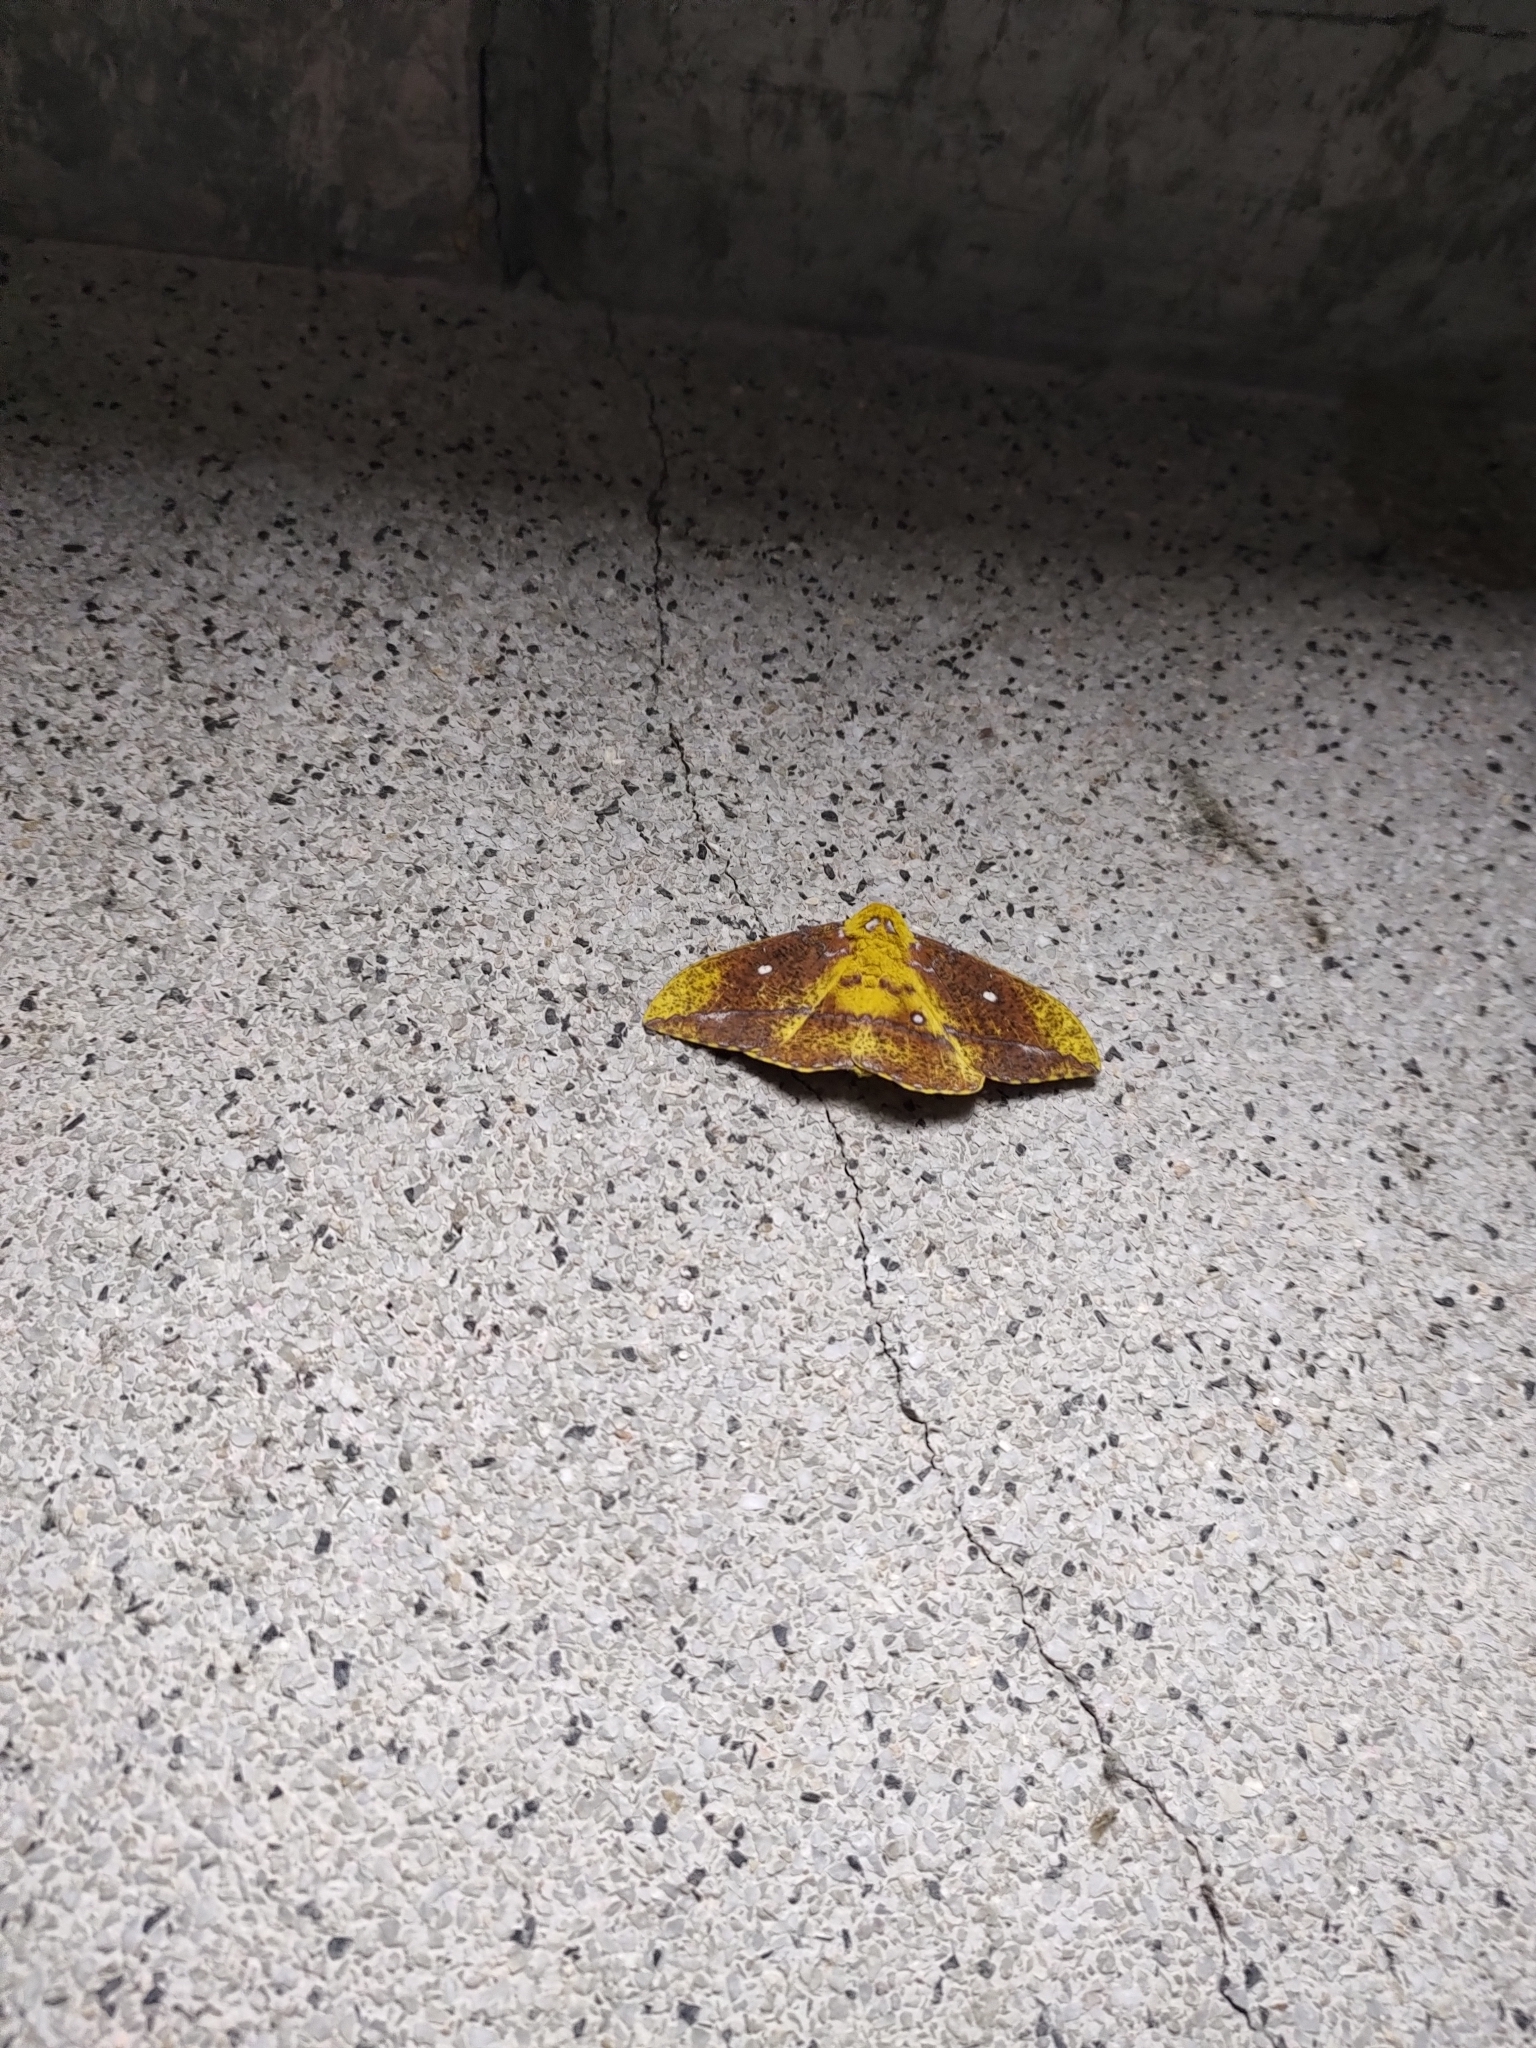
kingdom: Animalia
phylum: Arthropoda
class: Insecta
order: Lepidoptera
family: Saturniidae
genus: Eacles
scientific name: Eacles ducalis
